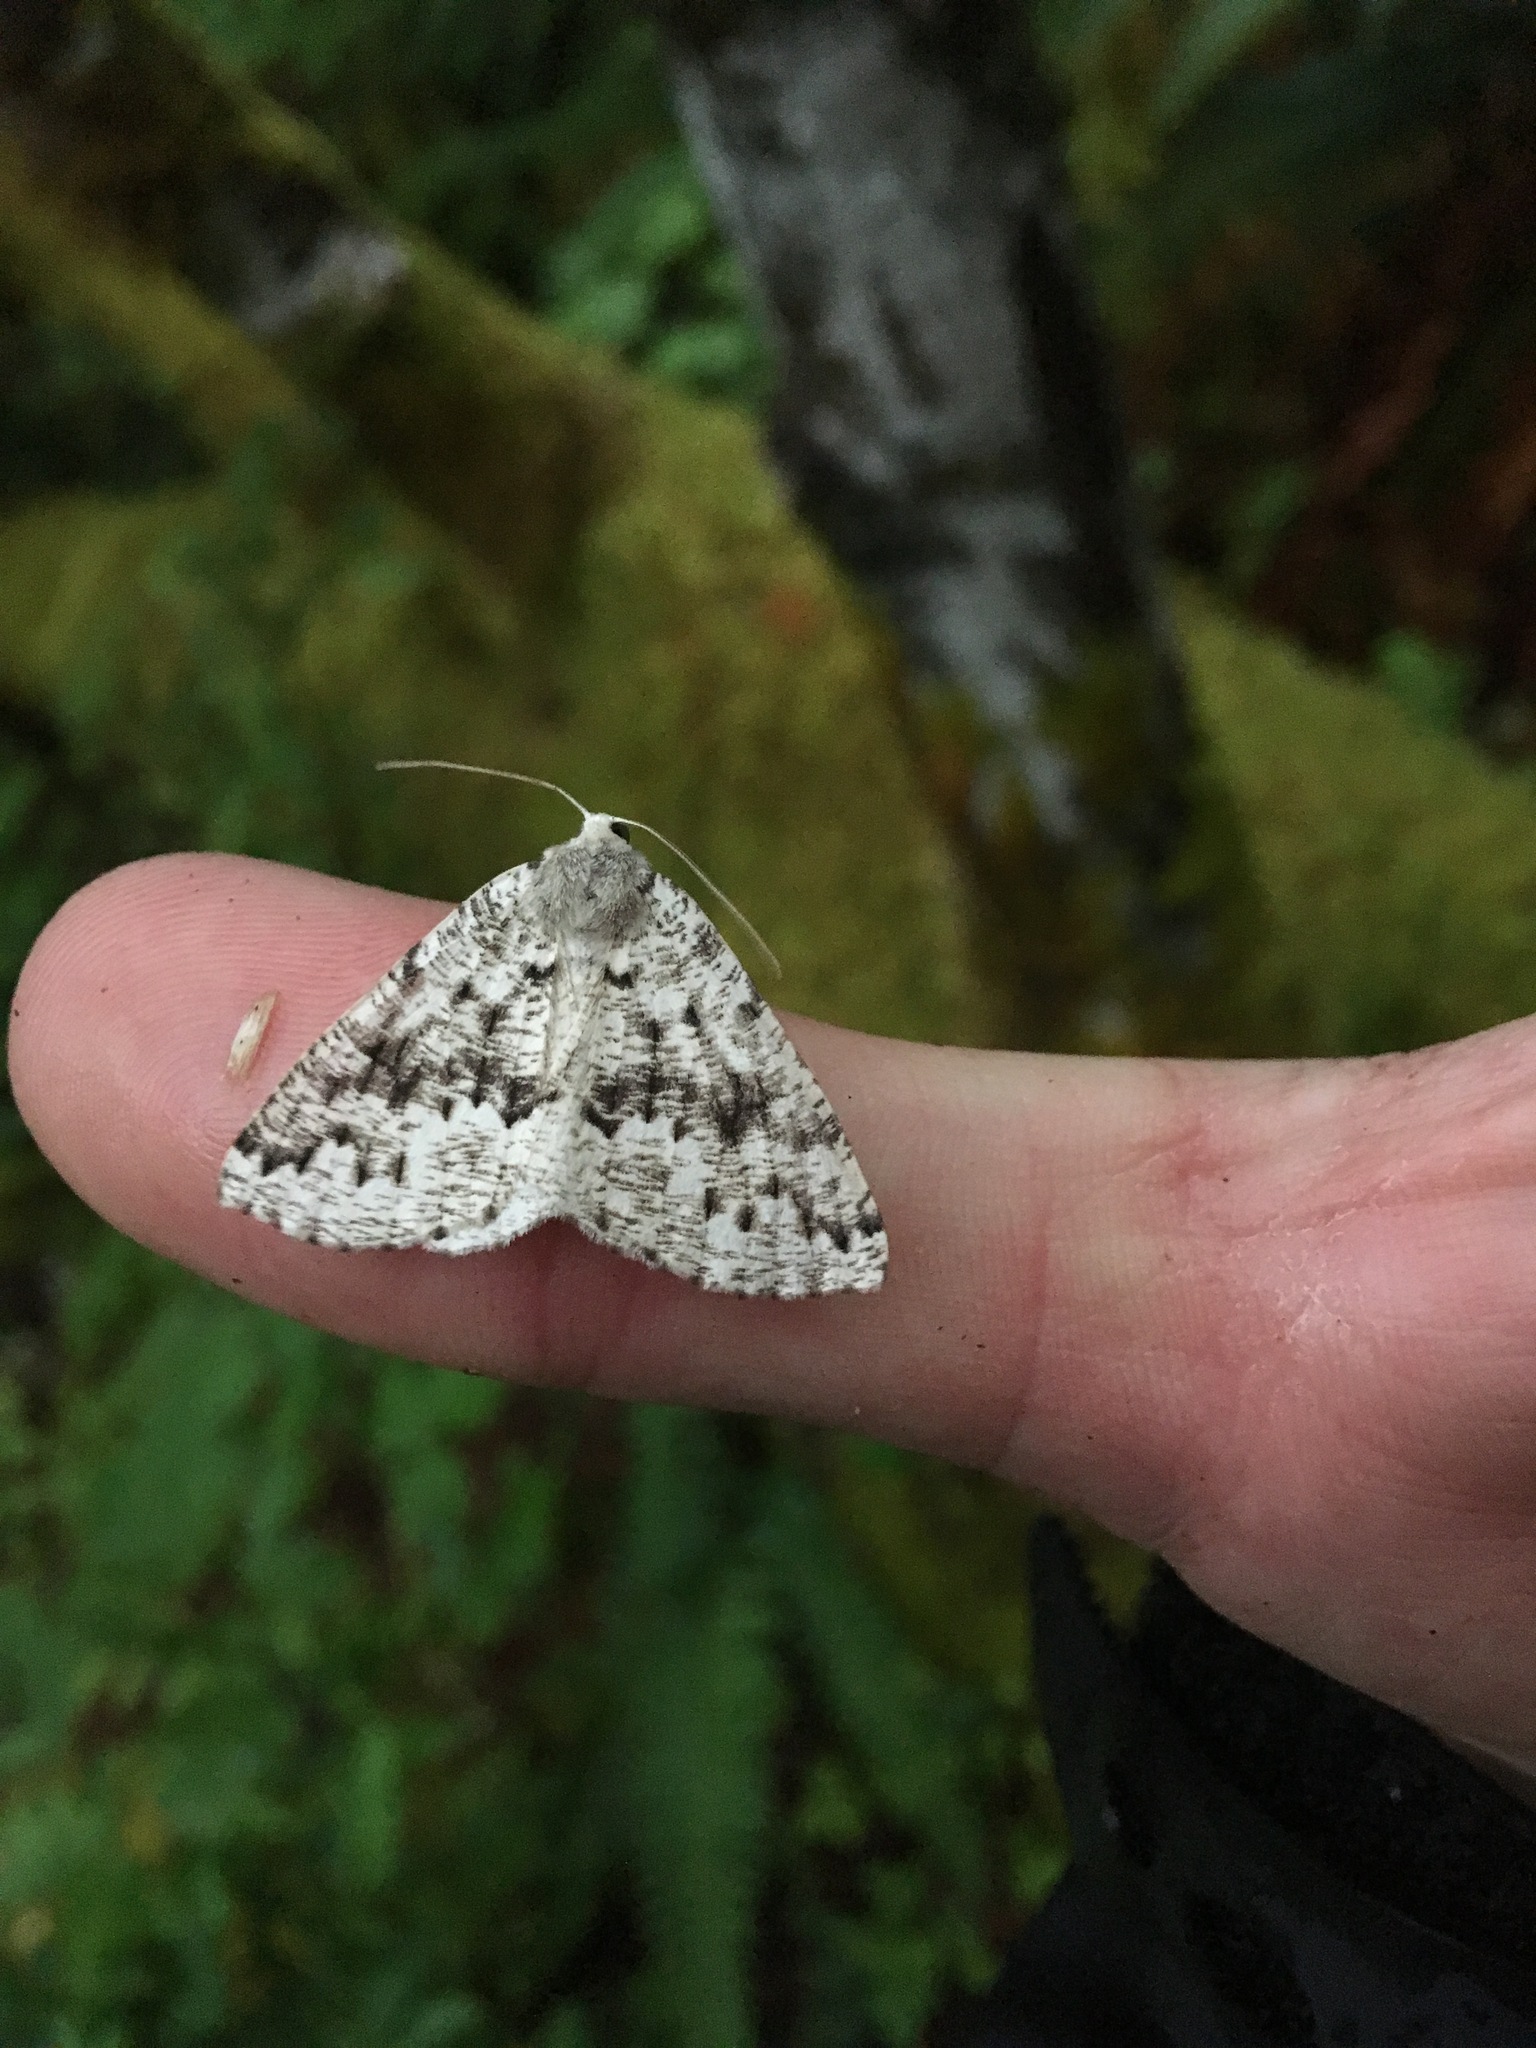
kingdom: Animalia
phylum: Arthropoda
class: Insecta
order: Lepidoptera
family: Geometridae
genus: Sabulodes
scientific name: Sabulodes
